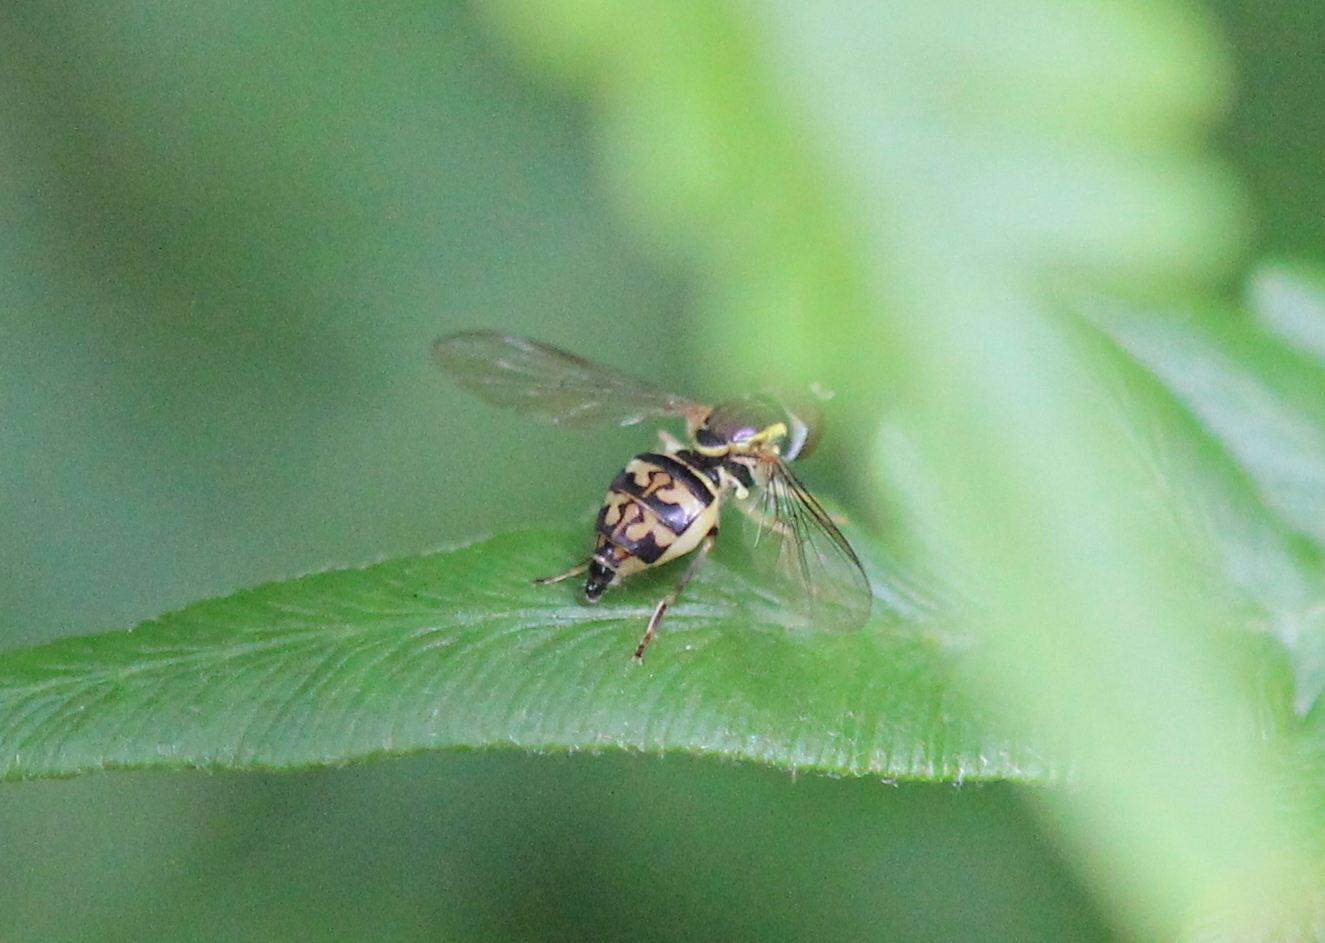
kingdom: Animalia
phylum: Arthropoda
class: Insecta
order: Diptera
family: Syrphidae
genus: Toxomerus
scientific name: Toxomerus geminatus
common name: Eastern calligrapher
